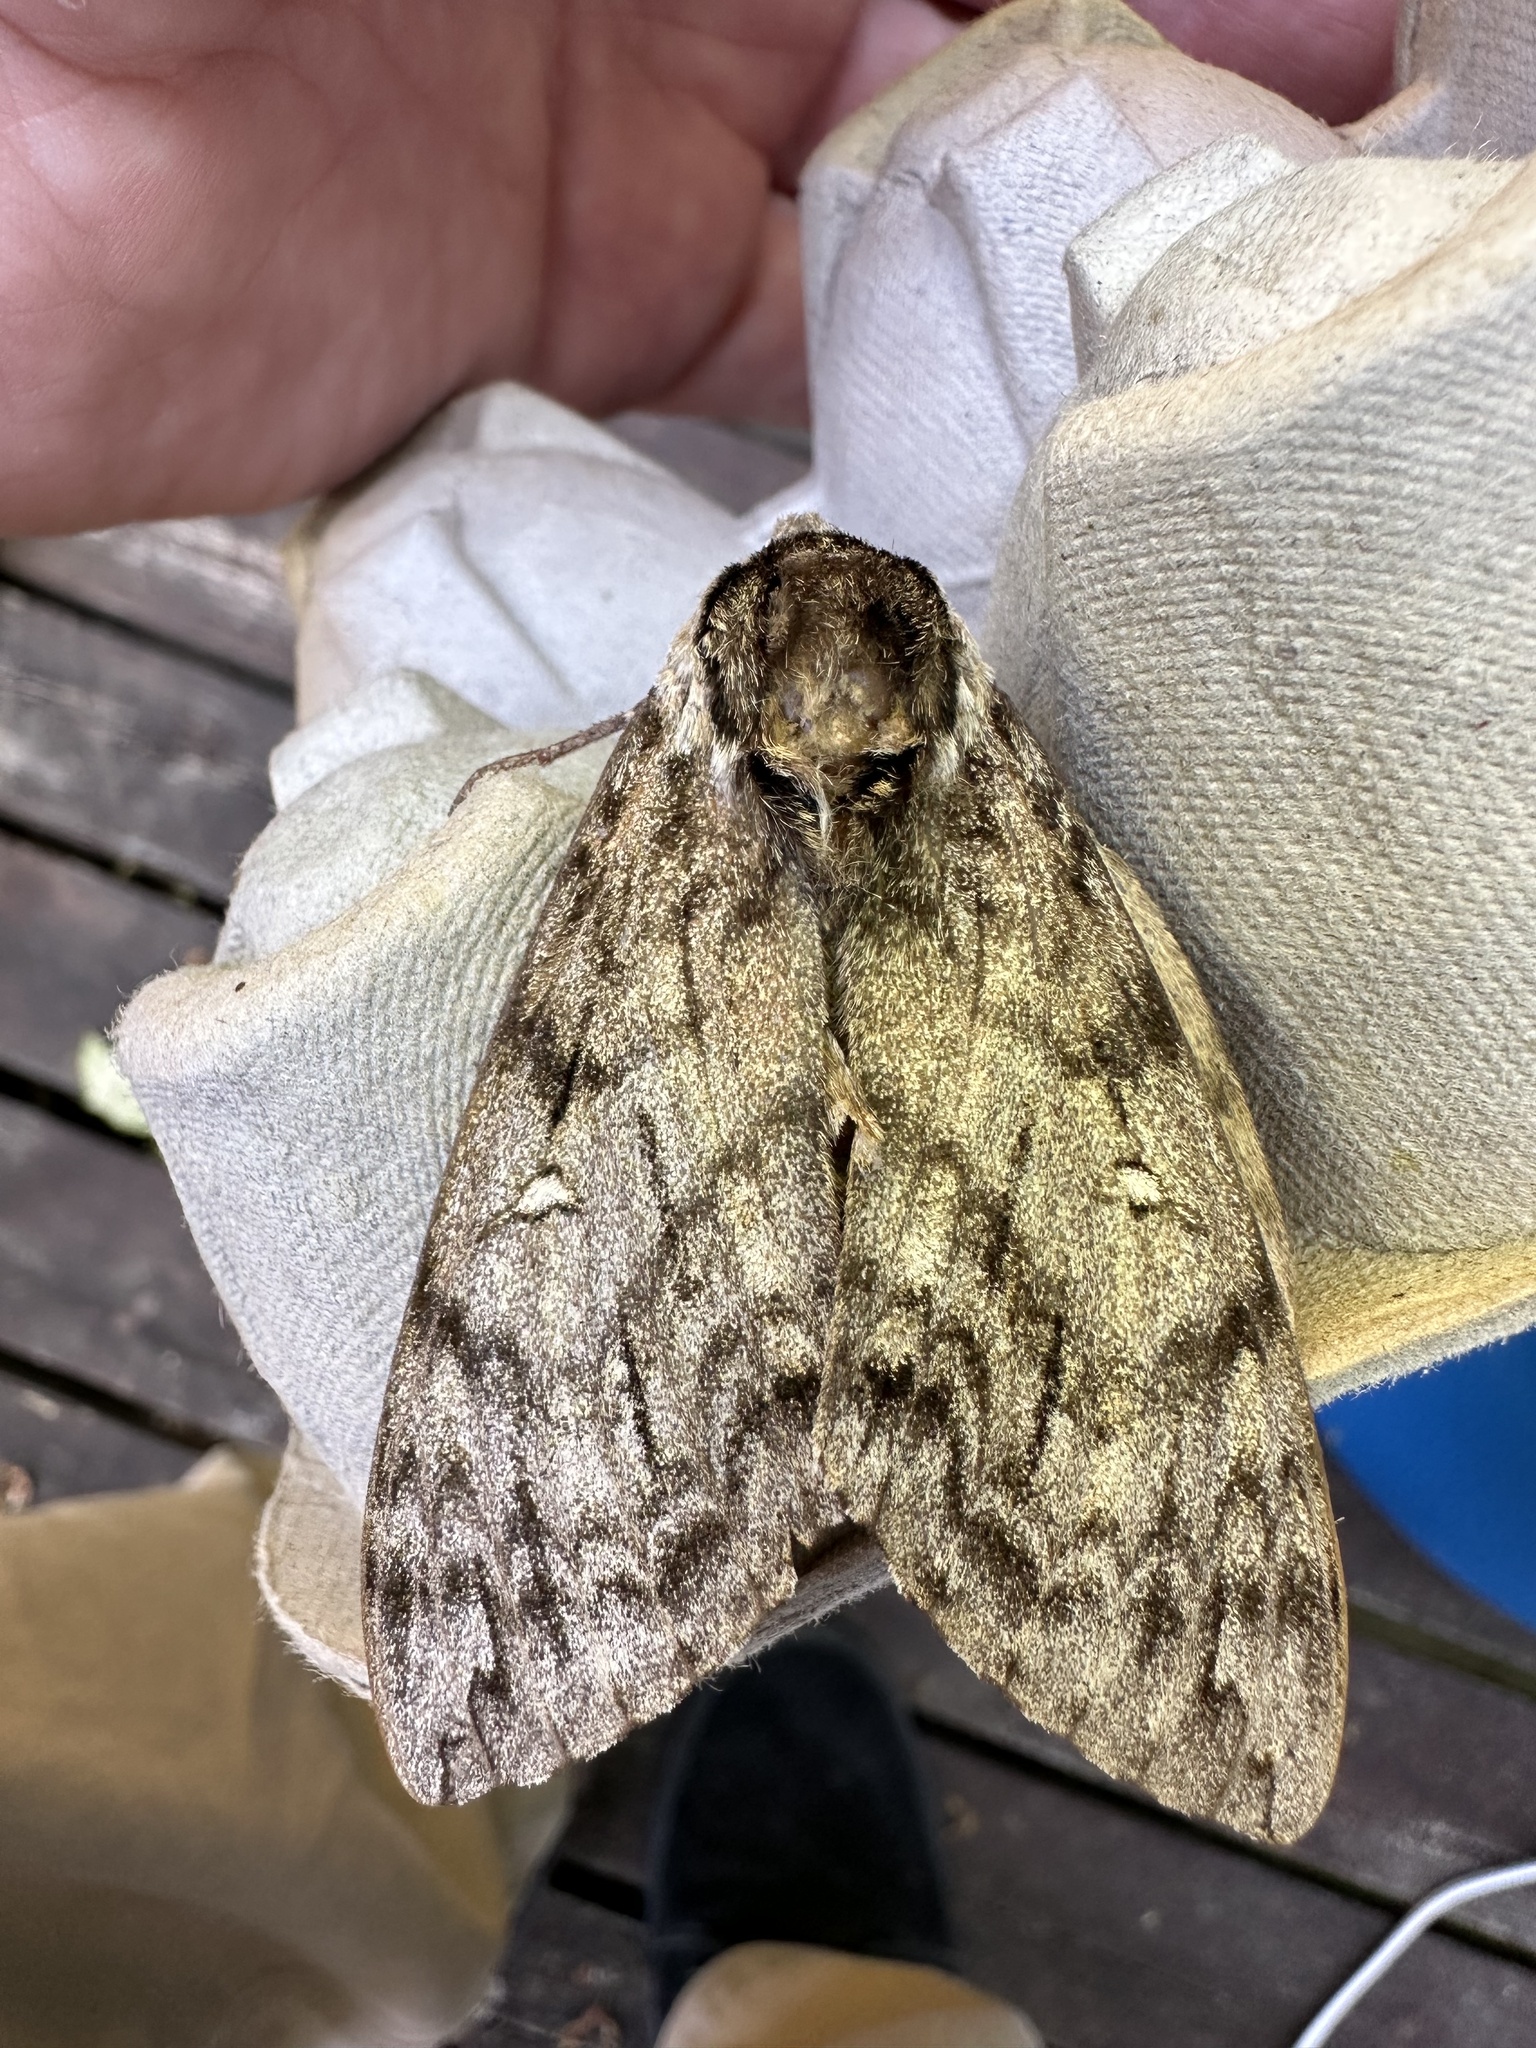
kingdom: Animalia
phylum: Arthropoda
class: Insecta
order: Lepidoptera
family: Sphingidae
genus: Ceratomia
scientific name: Ceratomia undulosa
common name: Waved sphinx
